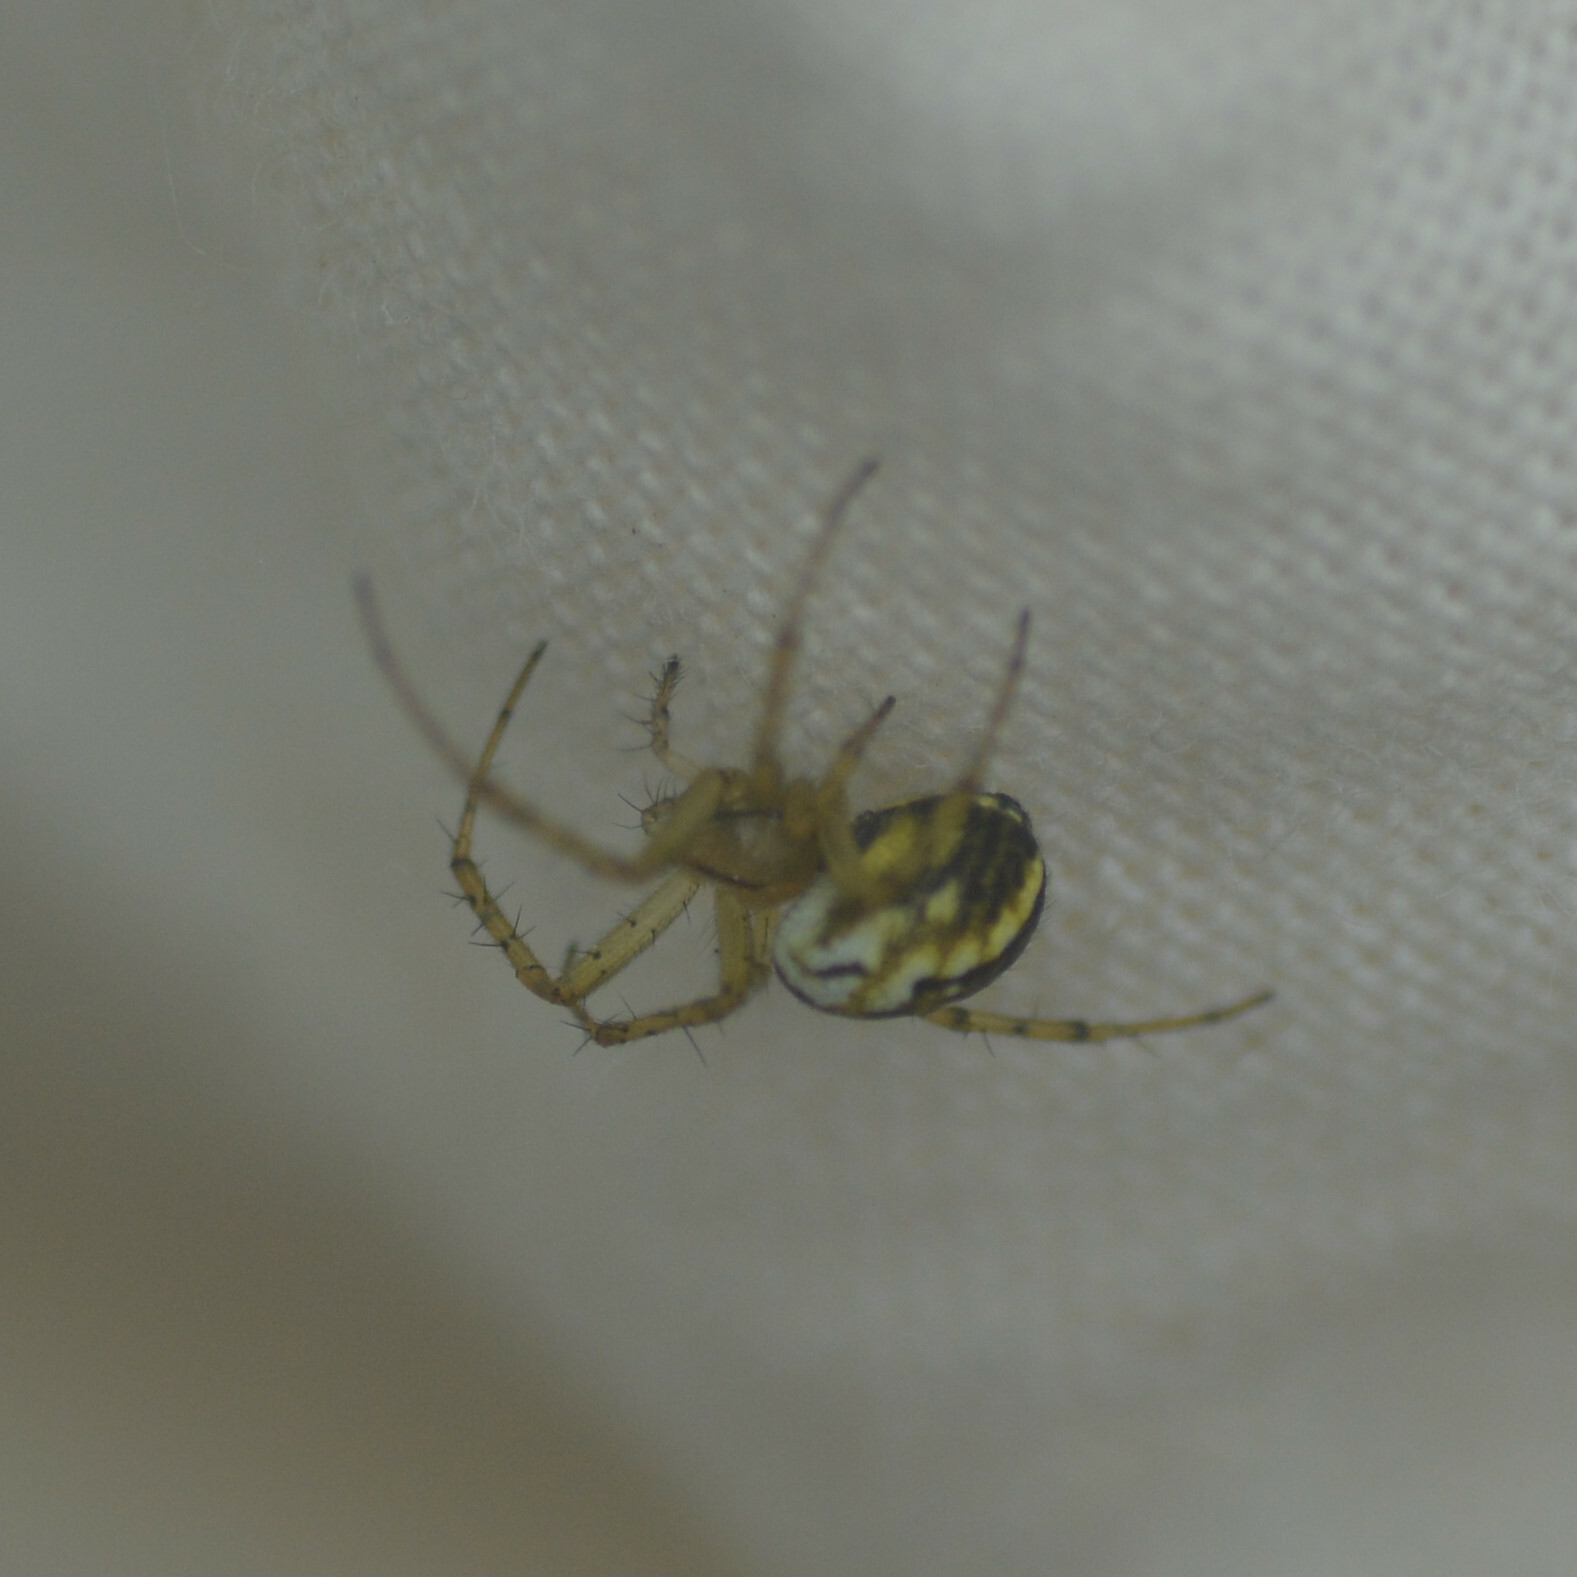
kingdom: Animalia
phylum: Arthropoda
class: Arachnida
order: Araneae
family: Araneidae
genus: Mangora
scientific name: Mangora acalypha
